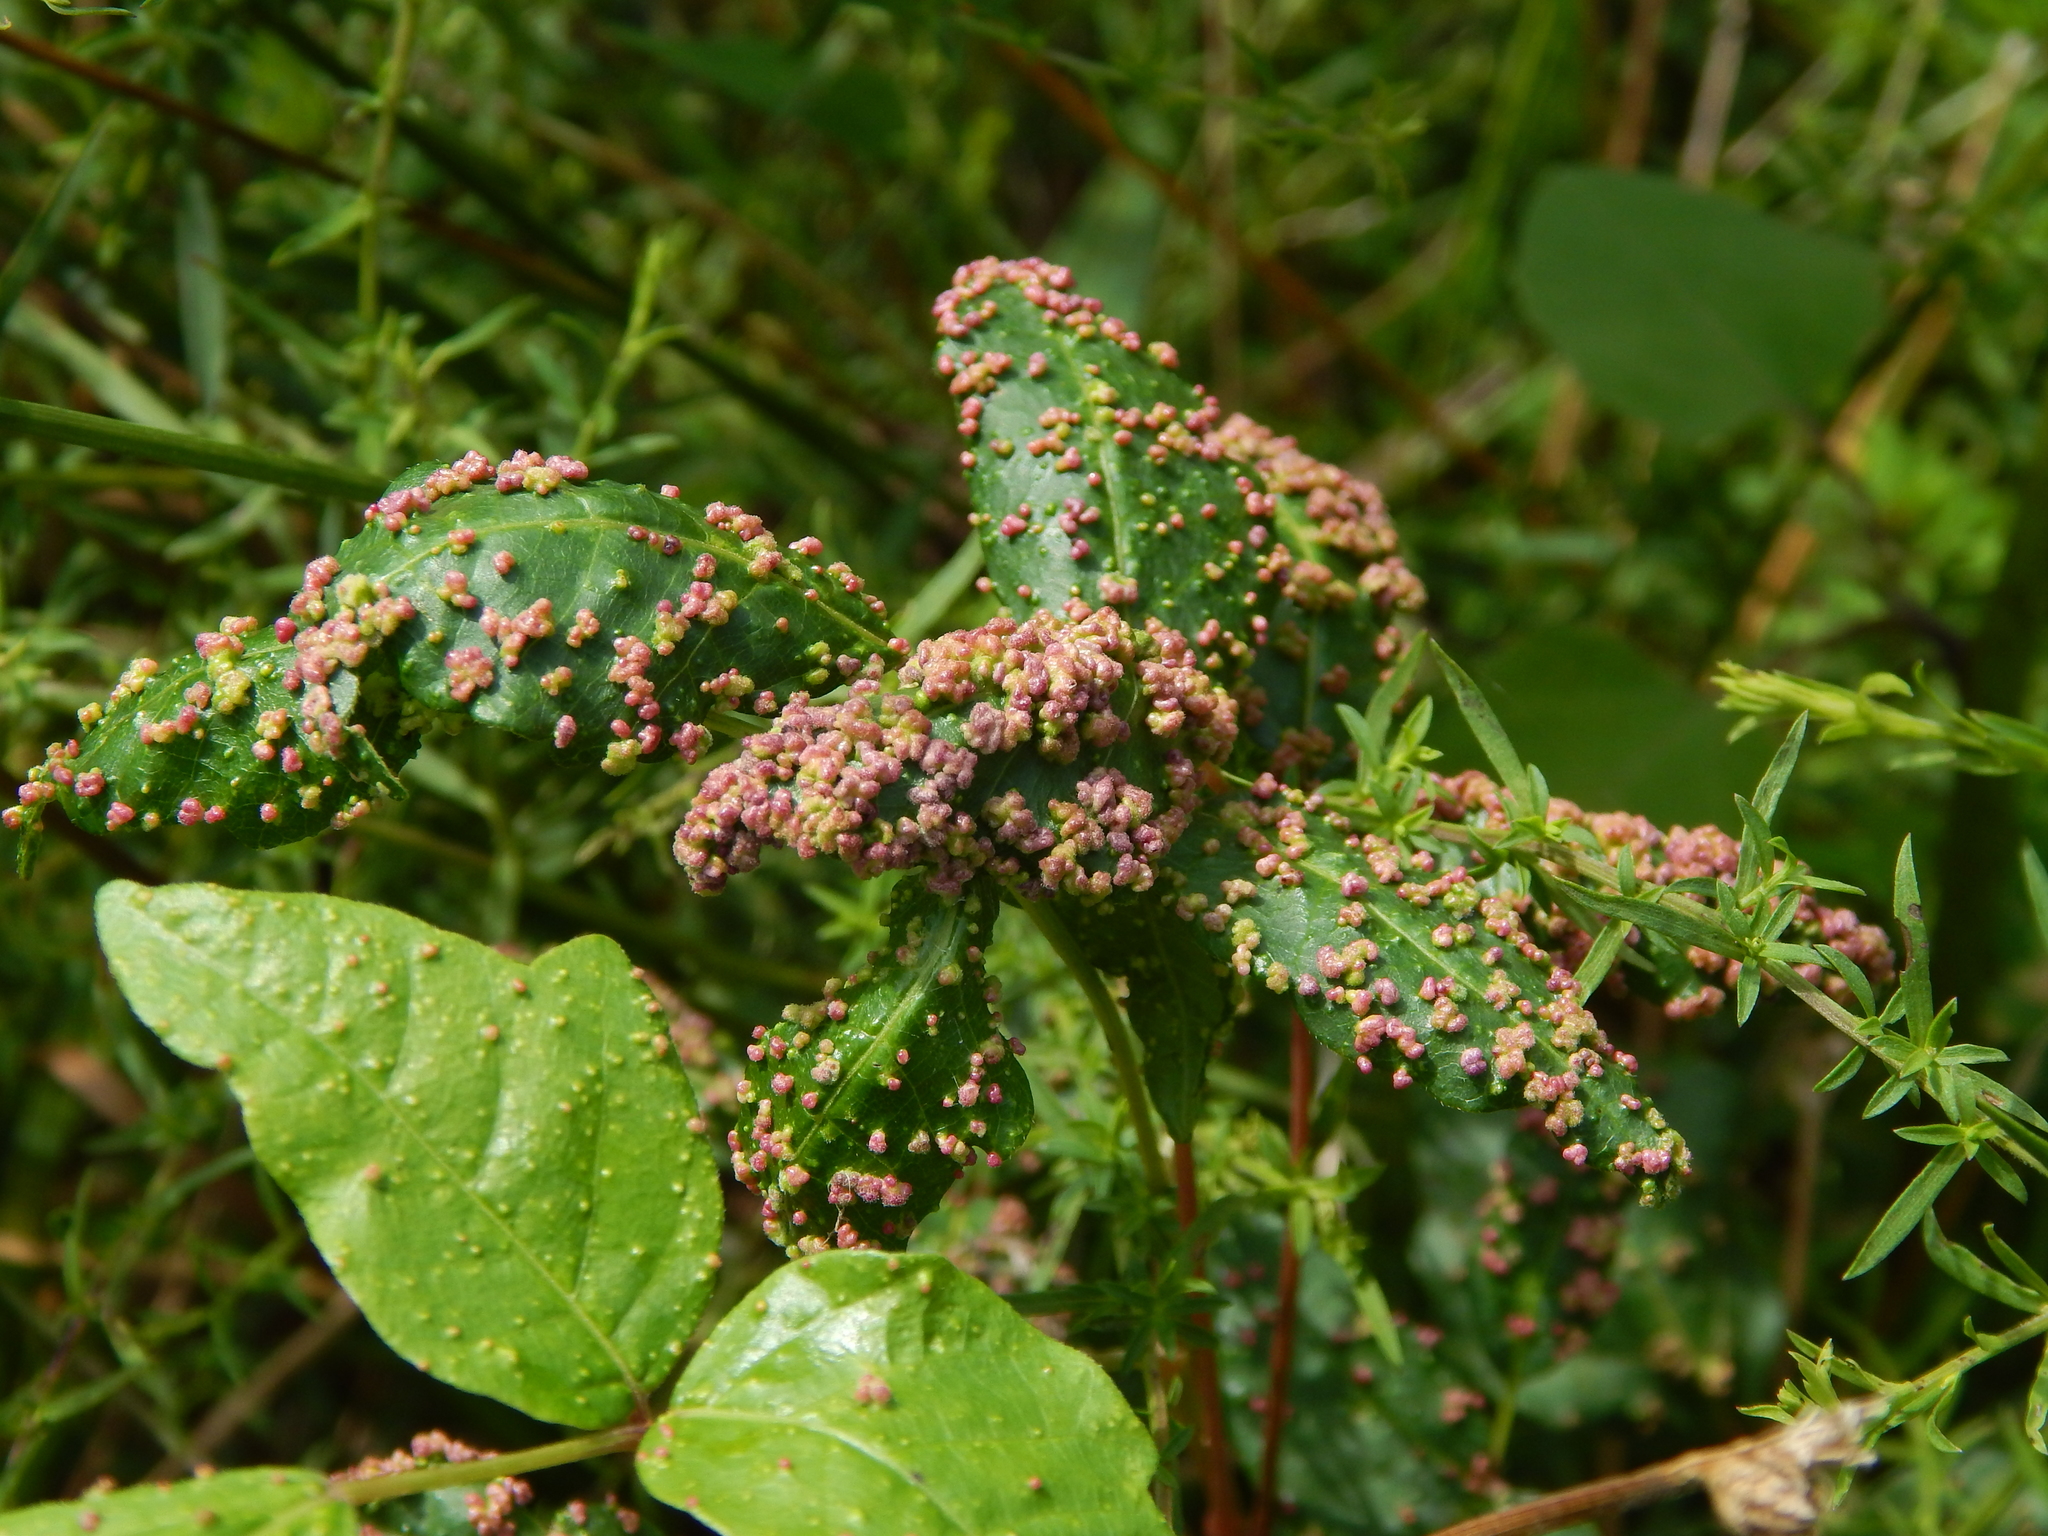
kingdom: Animalia
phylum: Arthropoda
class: Arachnida
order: Trombidiformes
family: Eriophyidae
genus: Aculops
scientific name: Aculops
